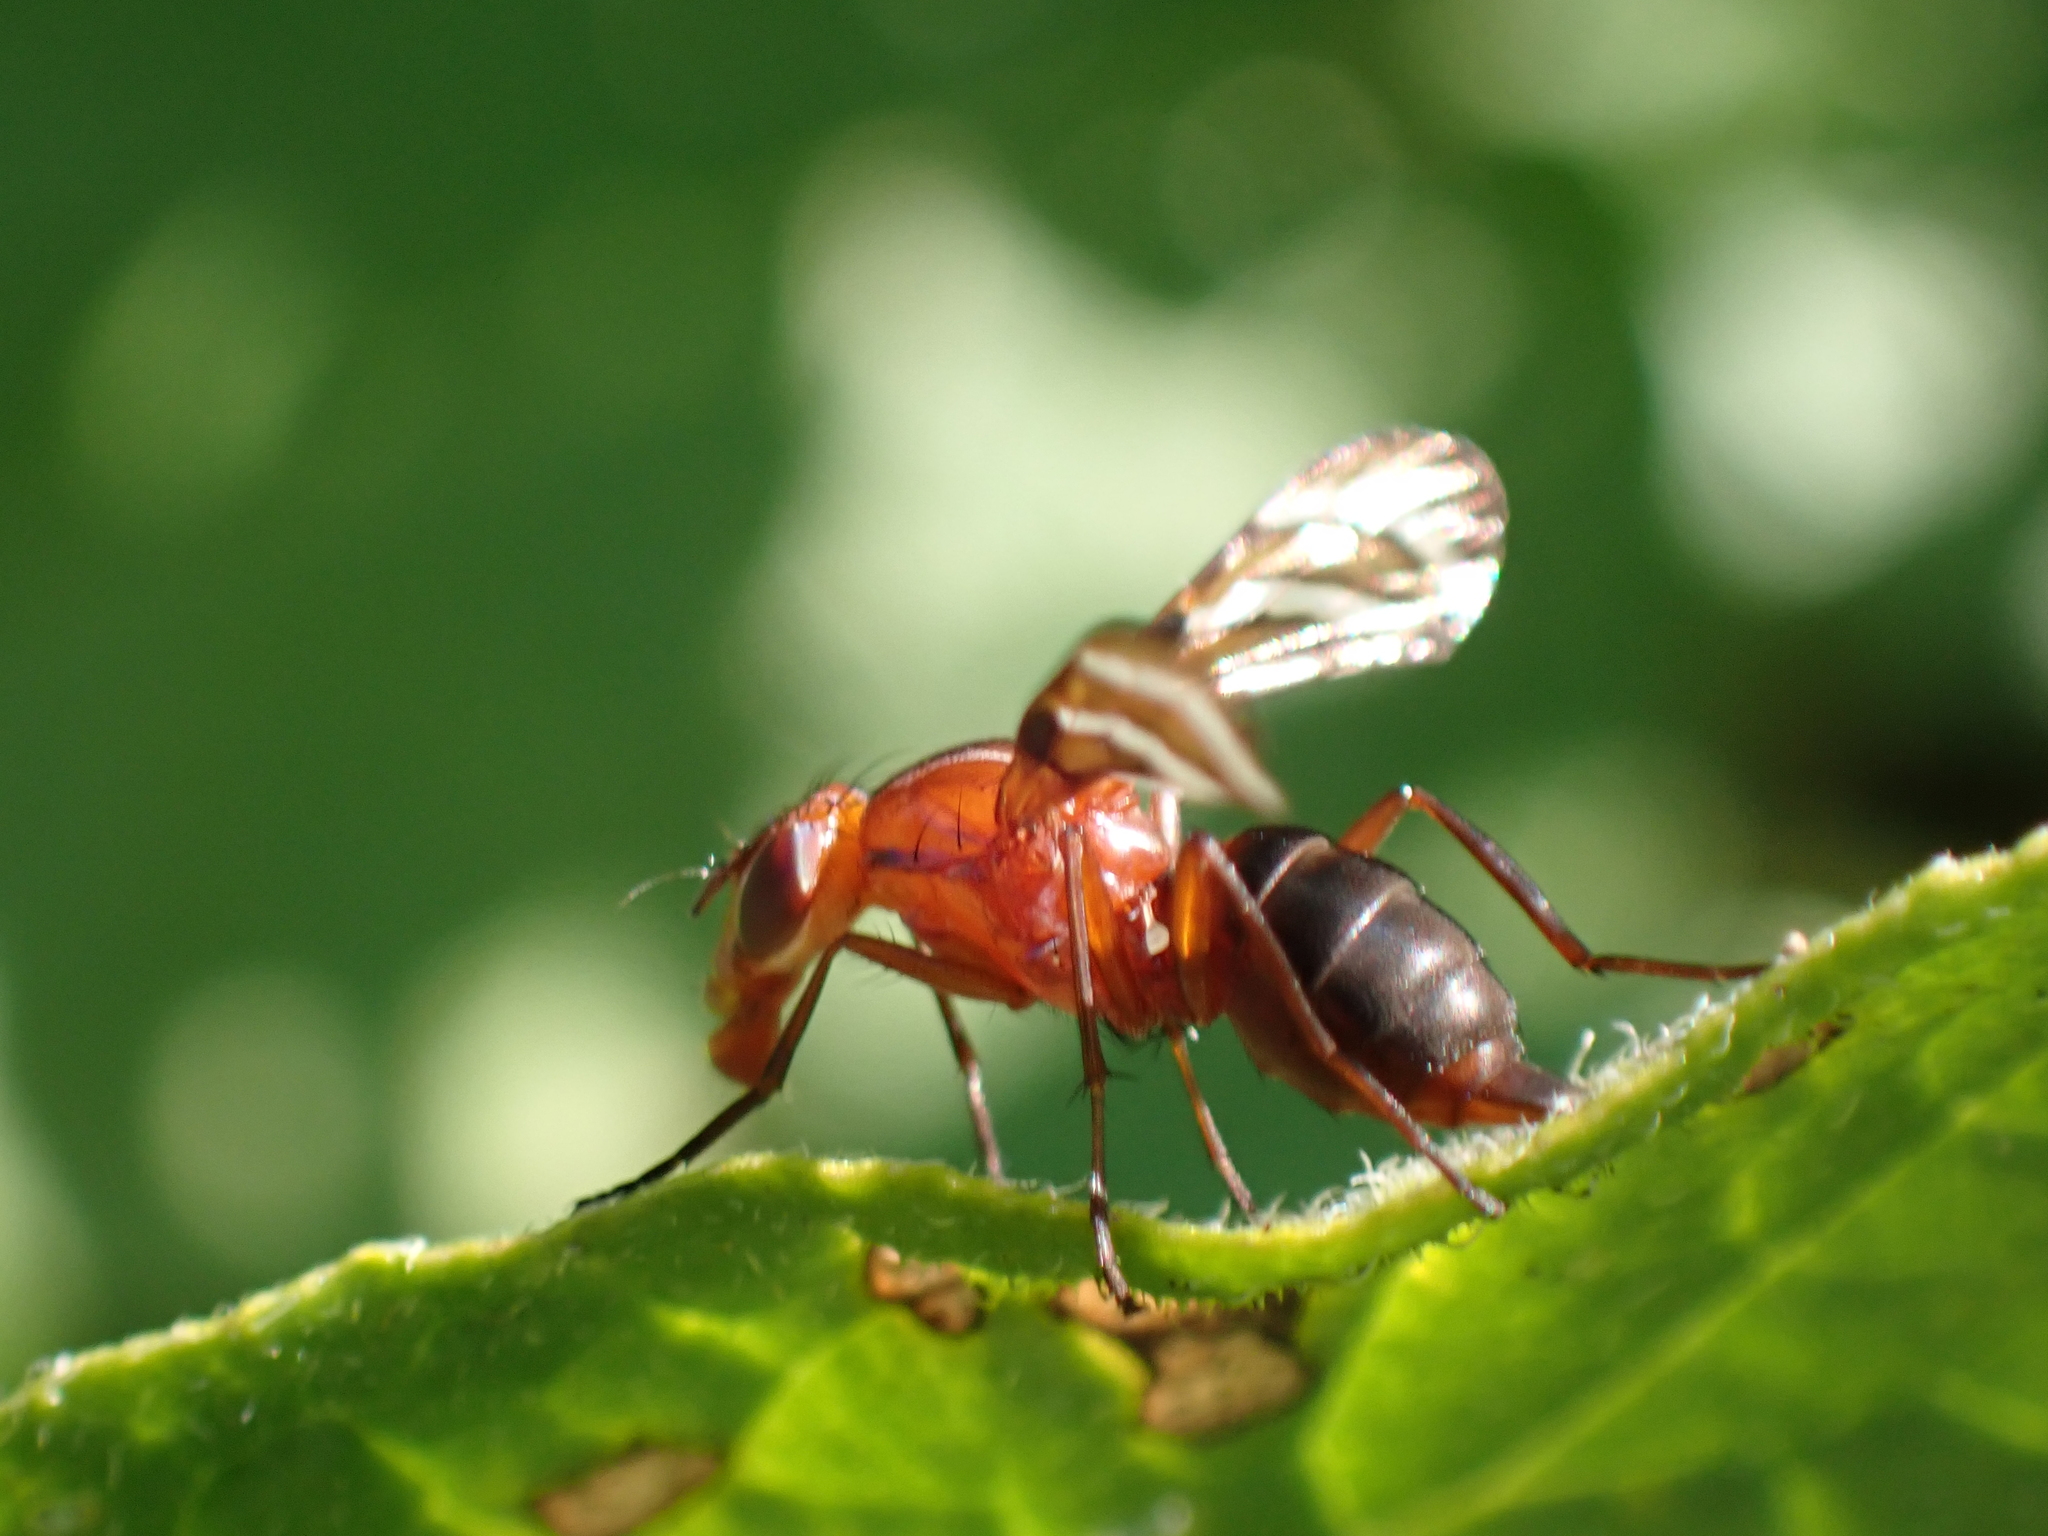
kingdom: Animalia
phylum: Arthropoda
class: Insecta
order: Diptera
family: Ulidiidae
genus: Tritoxa
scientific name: Tritoxa incurva
